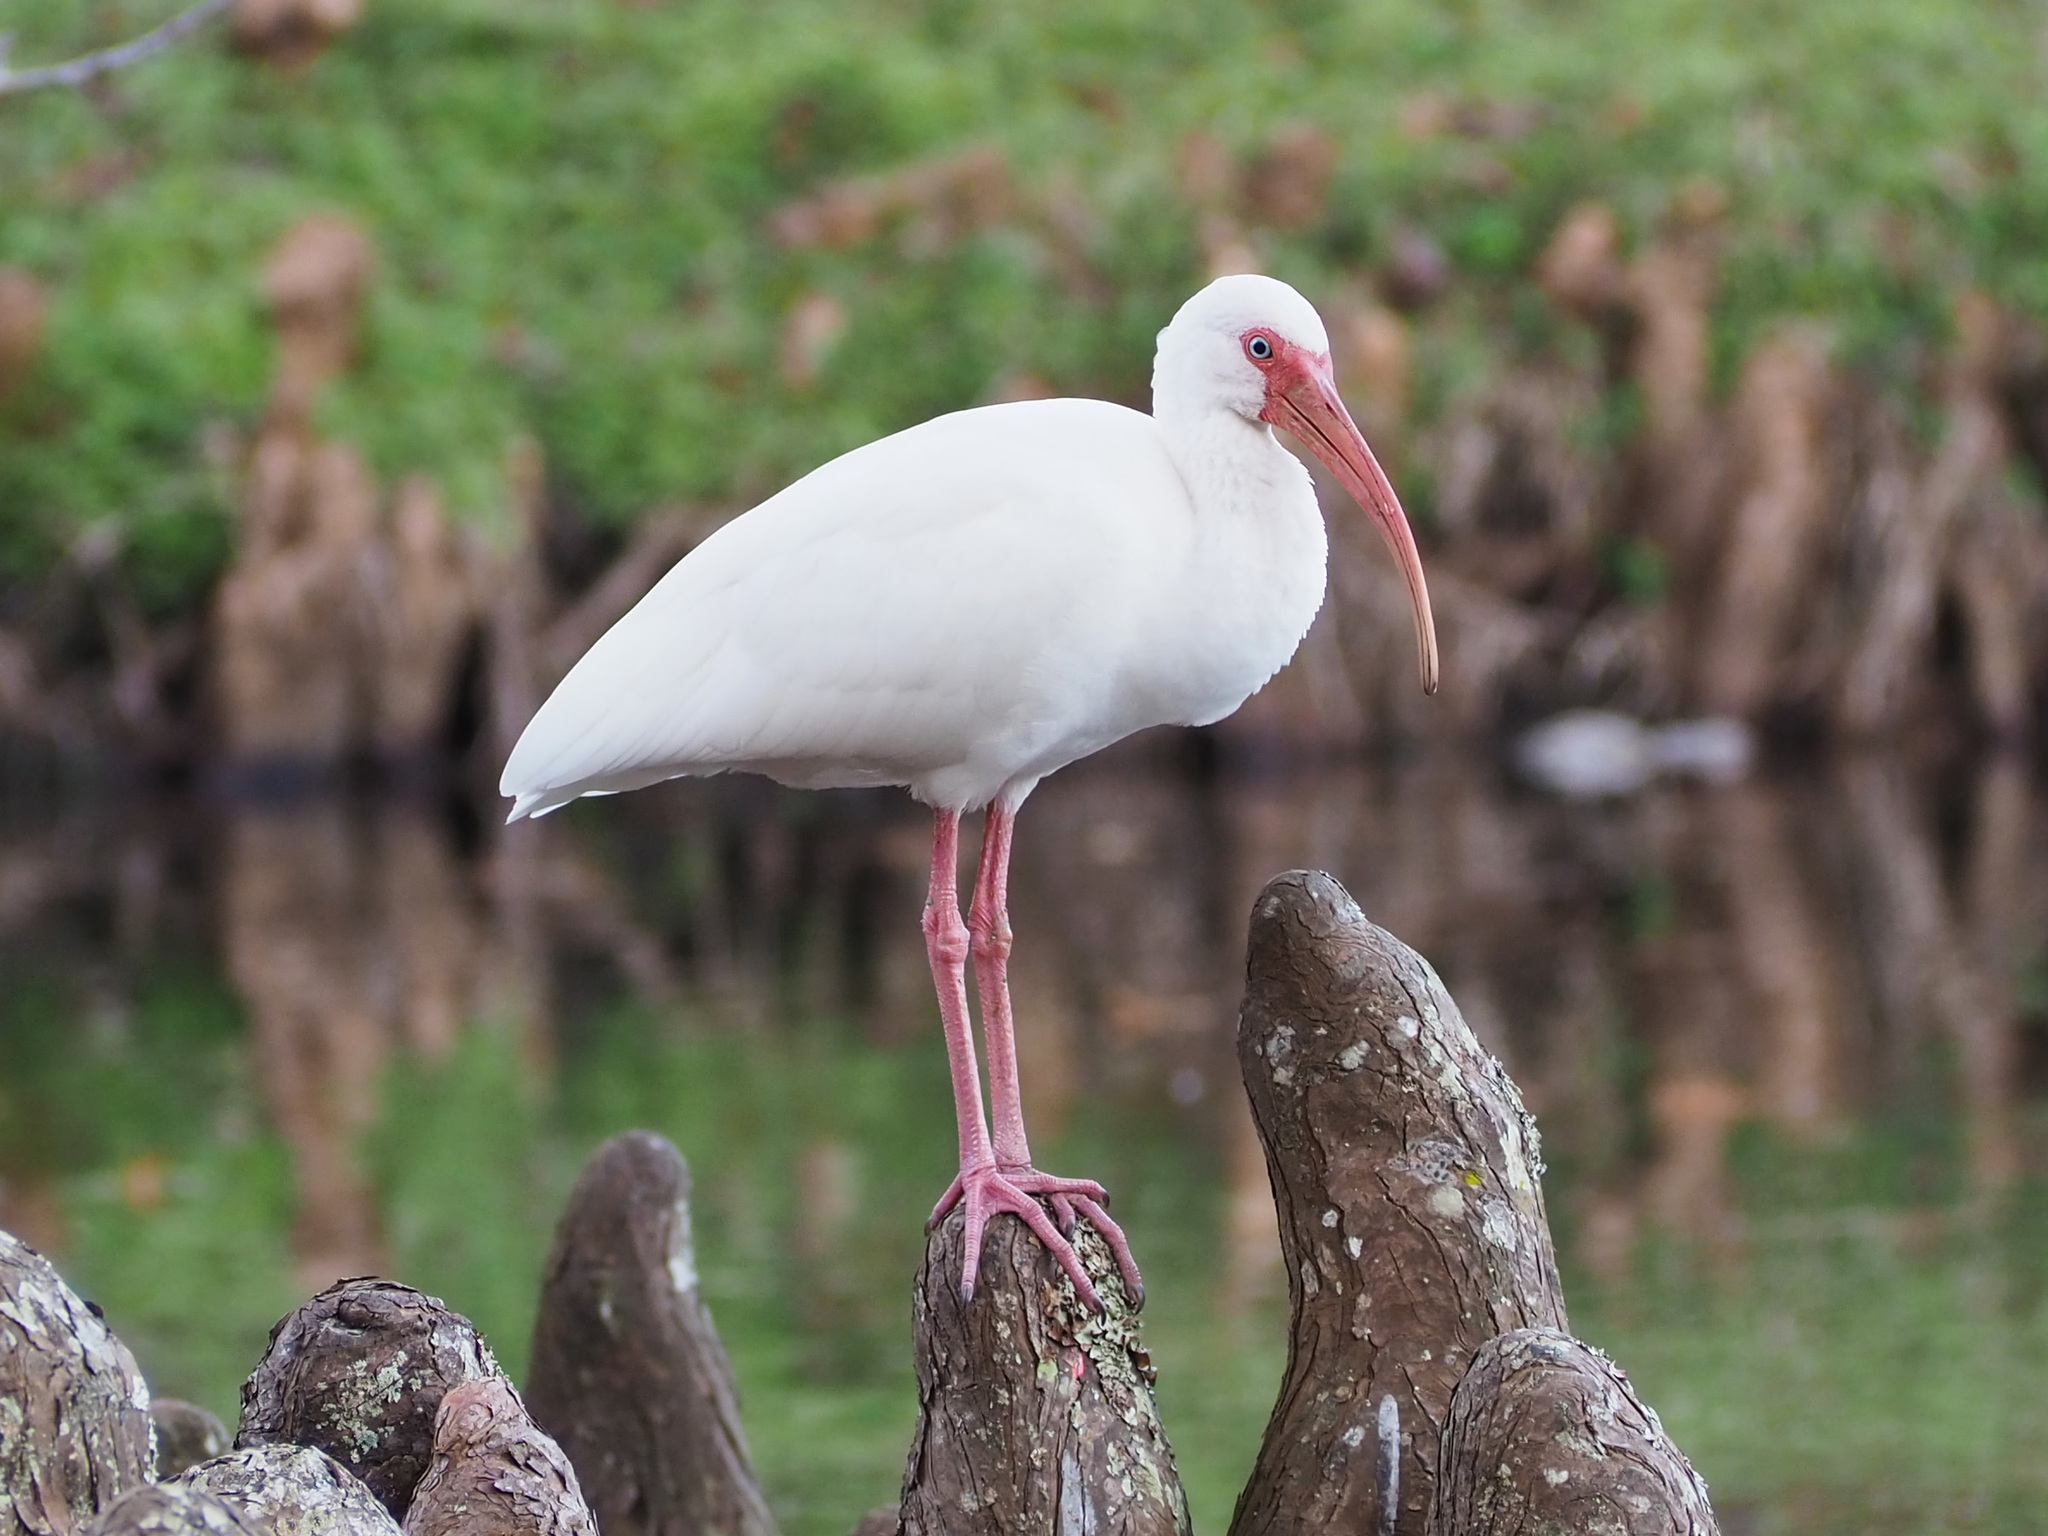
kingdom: Animalia
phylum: Chordata
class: Aves
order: Pelecaniformes
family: Threskiornithidae
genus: Eudocimus
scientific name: Eudocimus albus
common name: White ibis
